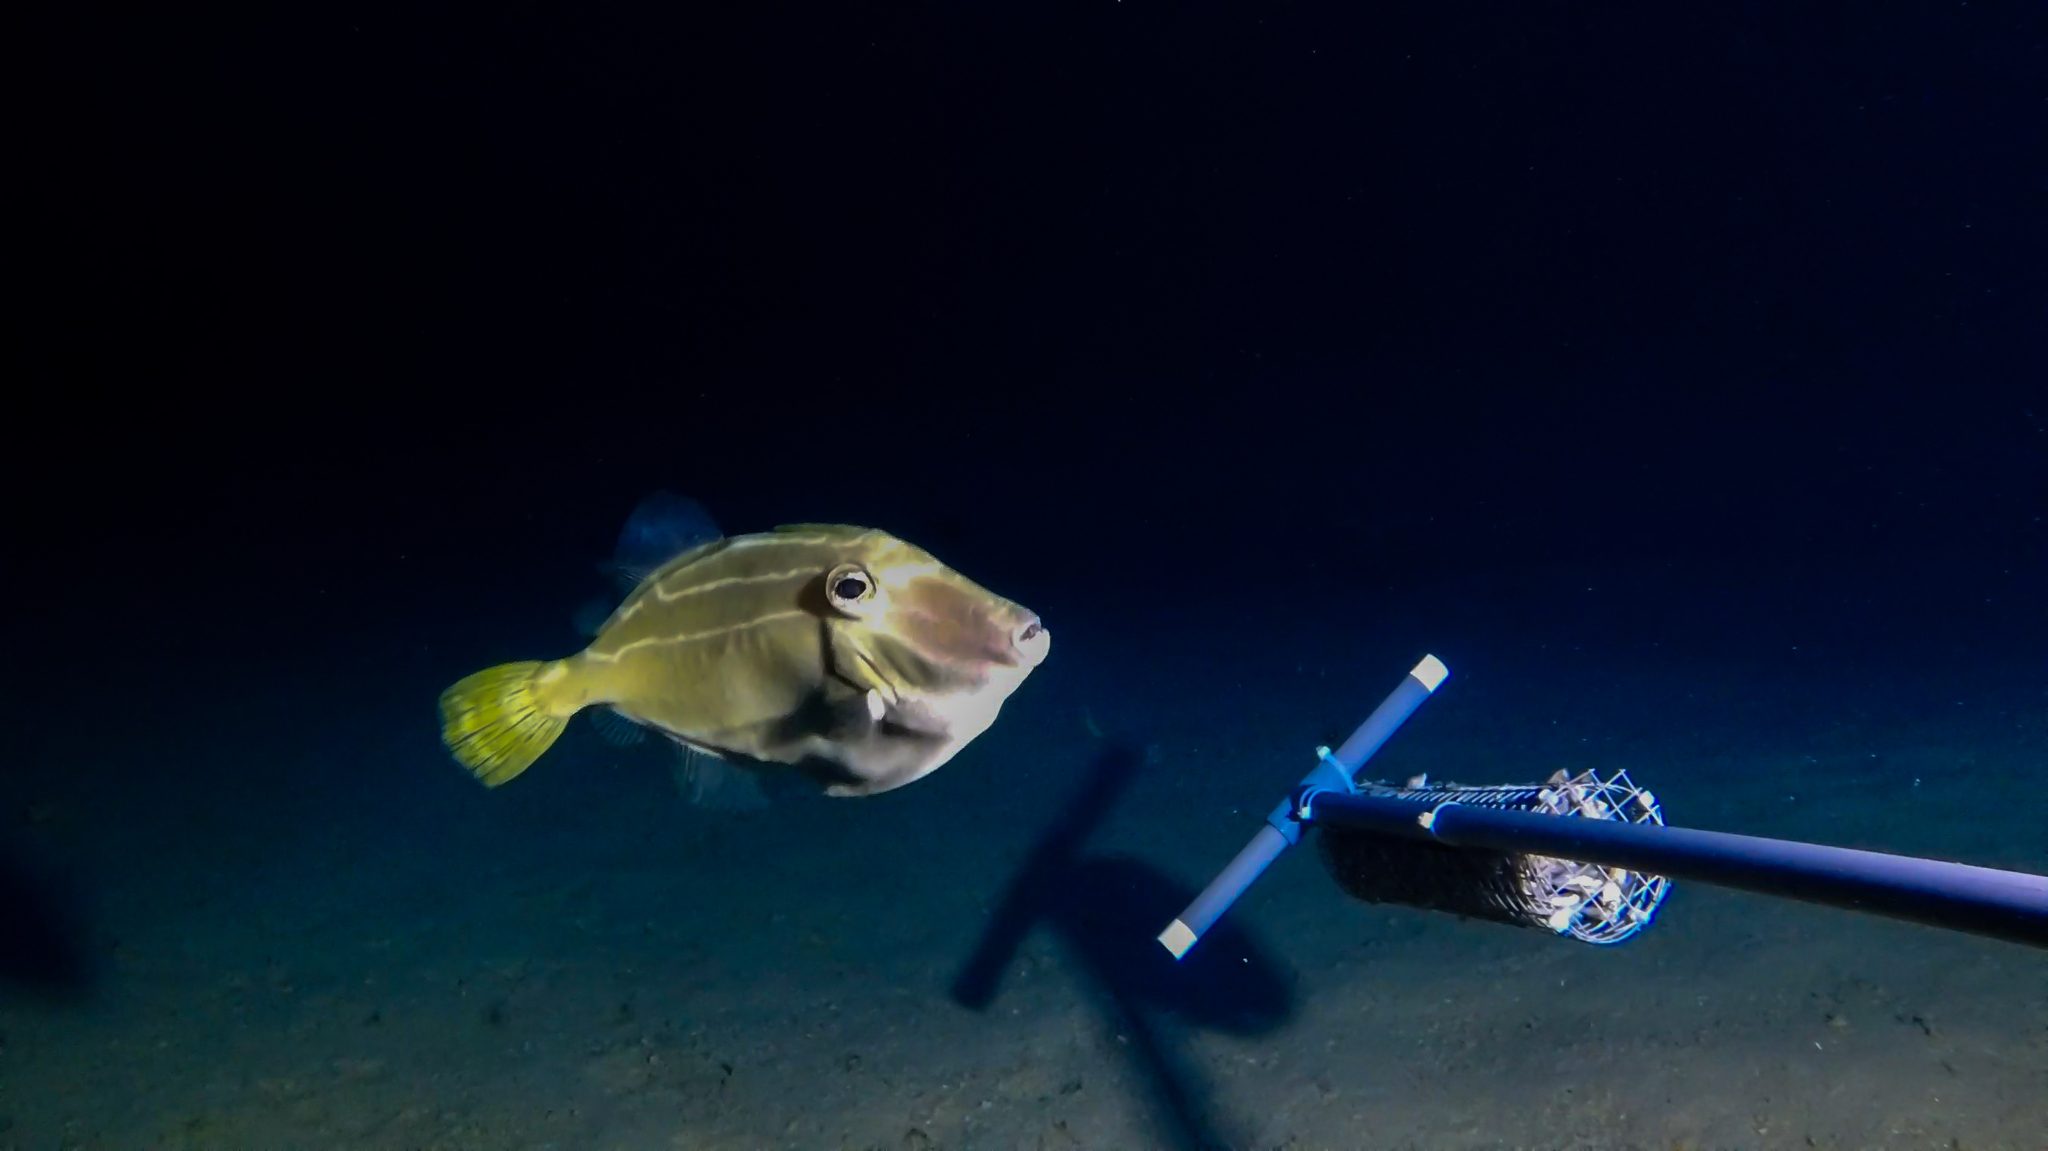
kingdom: Animalia
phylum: Chordata
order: Tetraodontiformes
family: Monacanthidae
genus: Thamnaconus
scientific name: Thamnaconus
